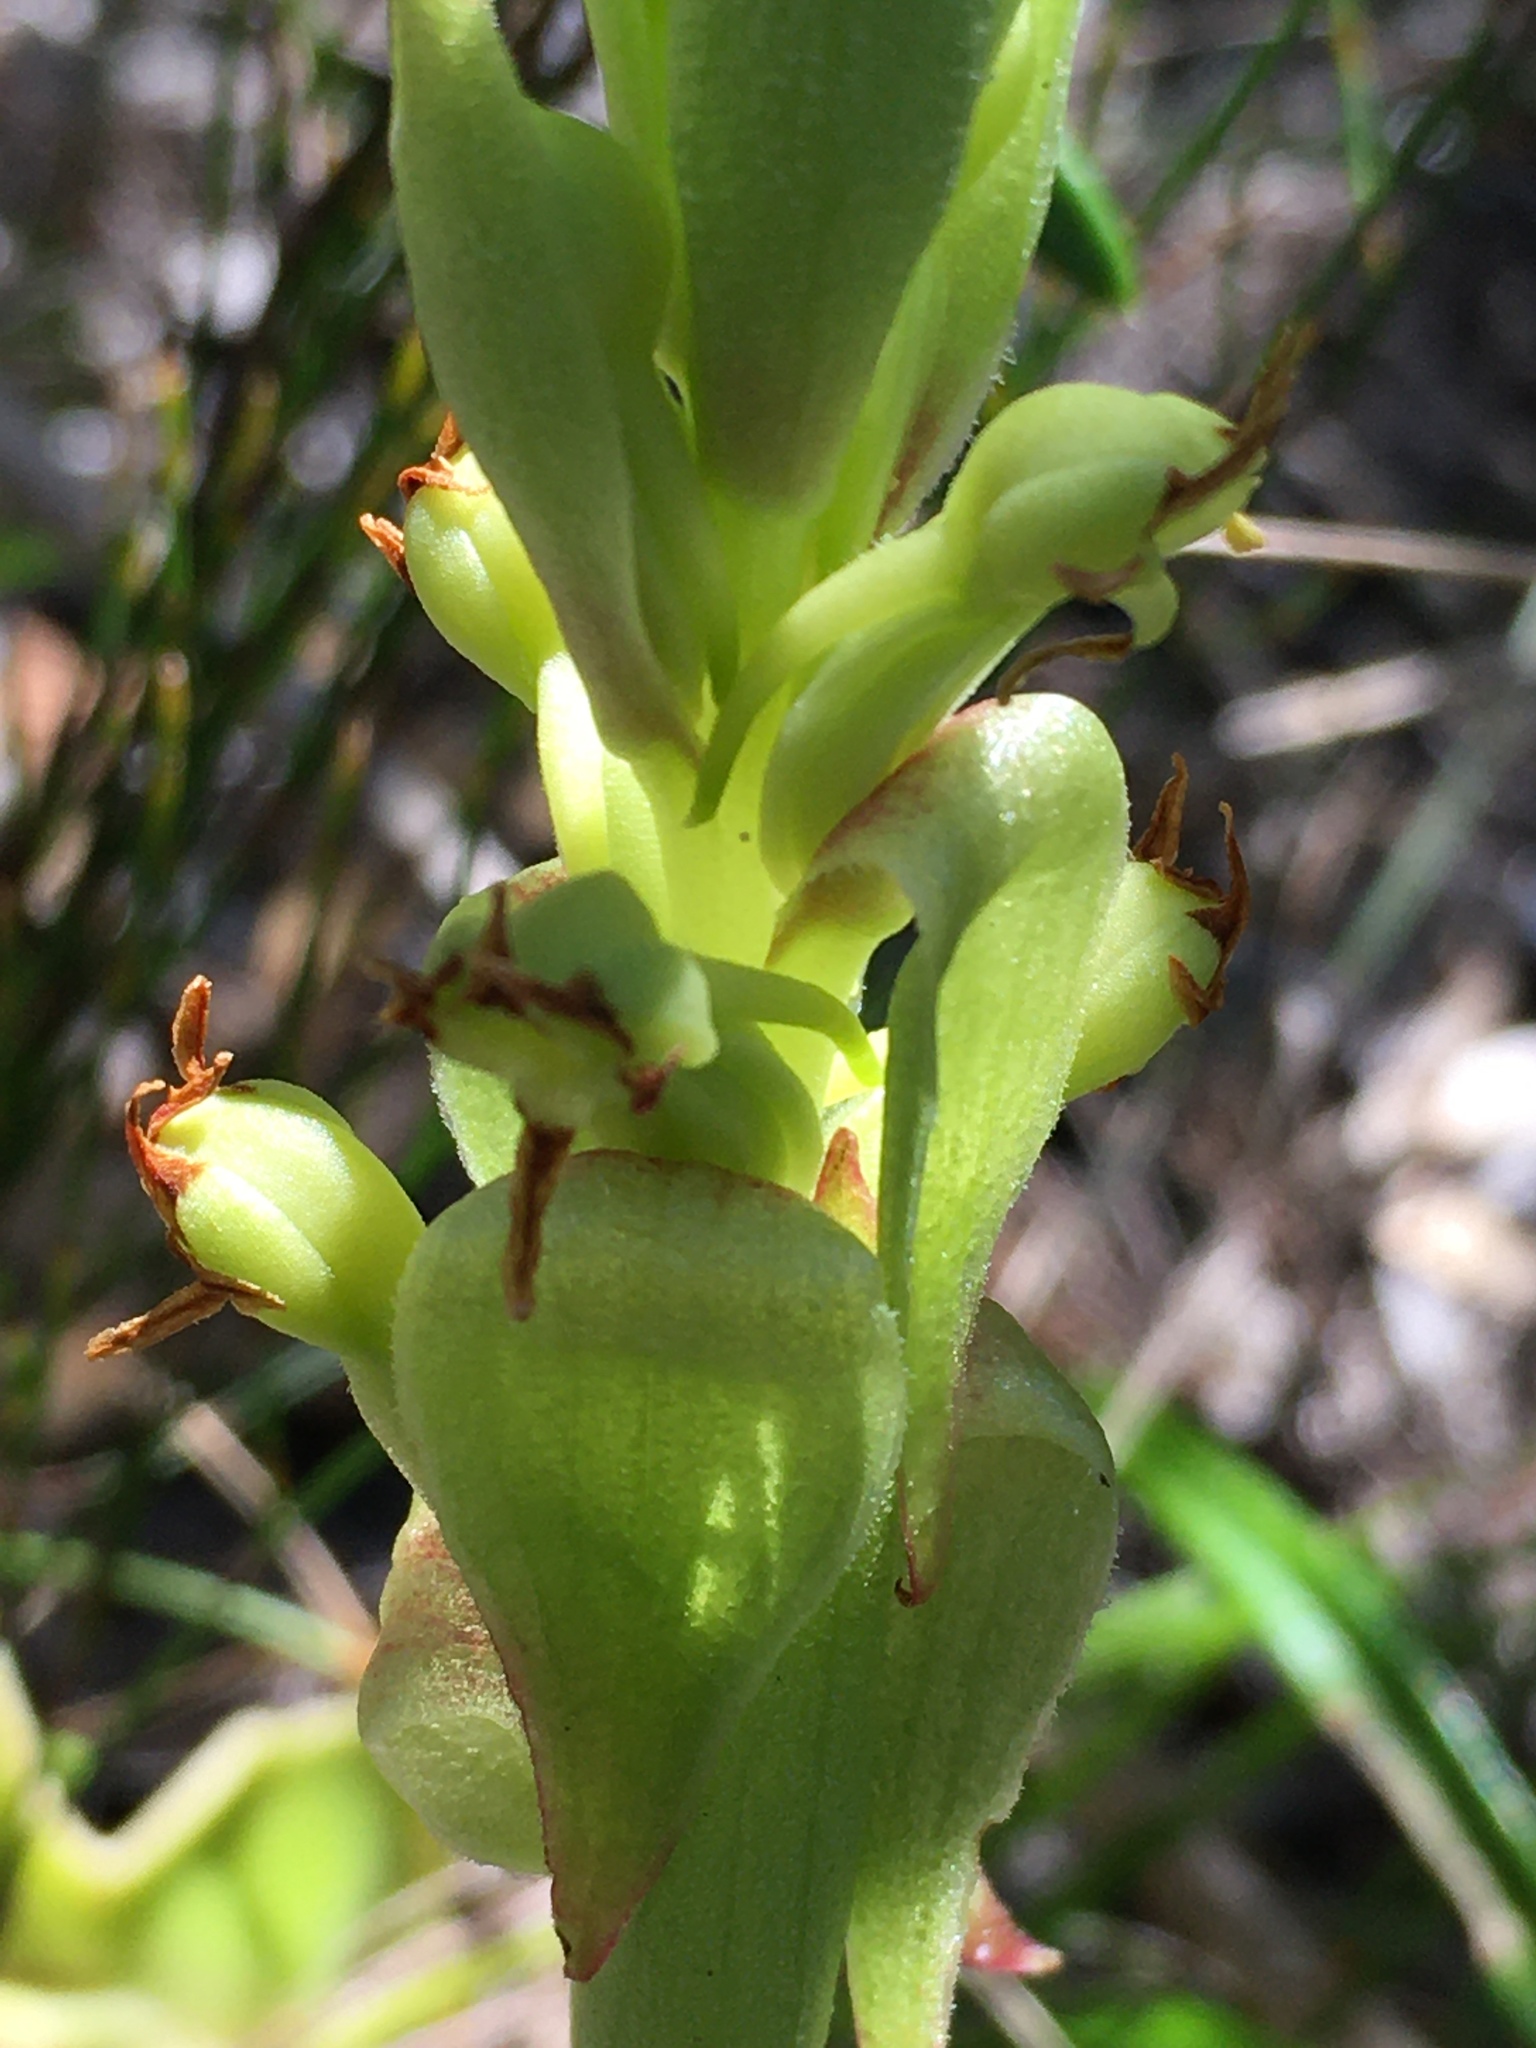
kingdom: Plantae
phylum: Tracheophyta
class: Liliopsida
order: Asparagales
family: Orchidaceae
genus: Satyrium
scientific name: Satyrium emarcidum
